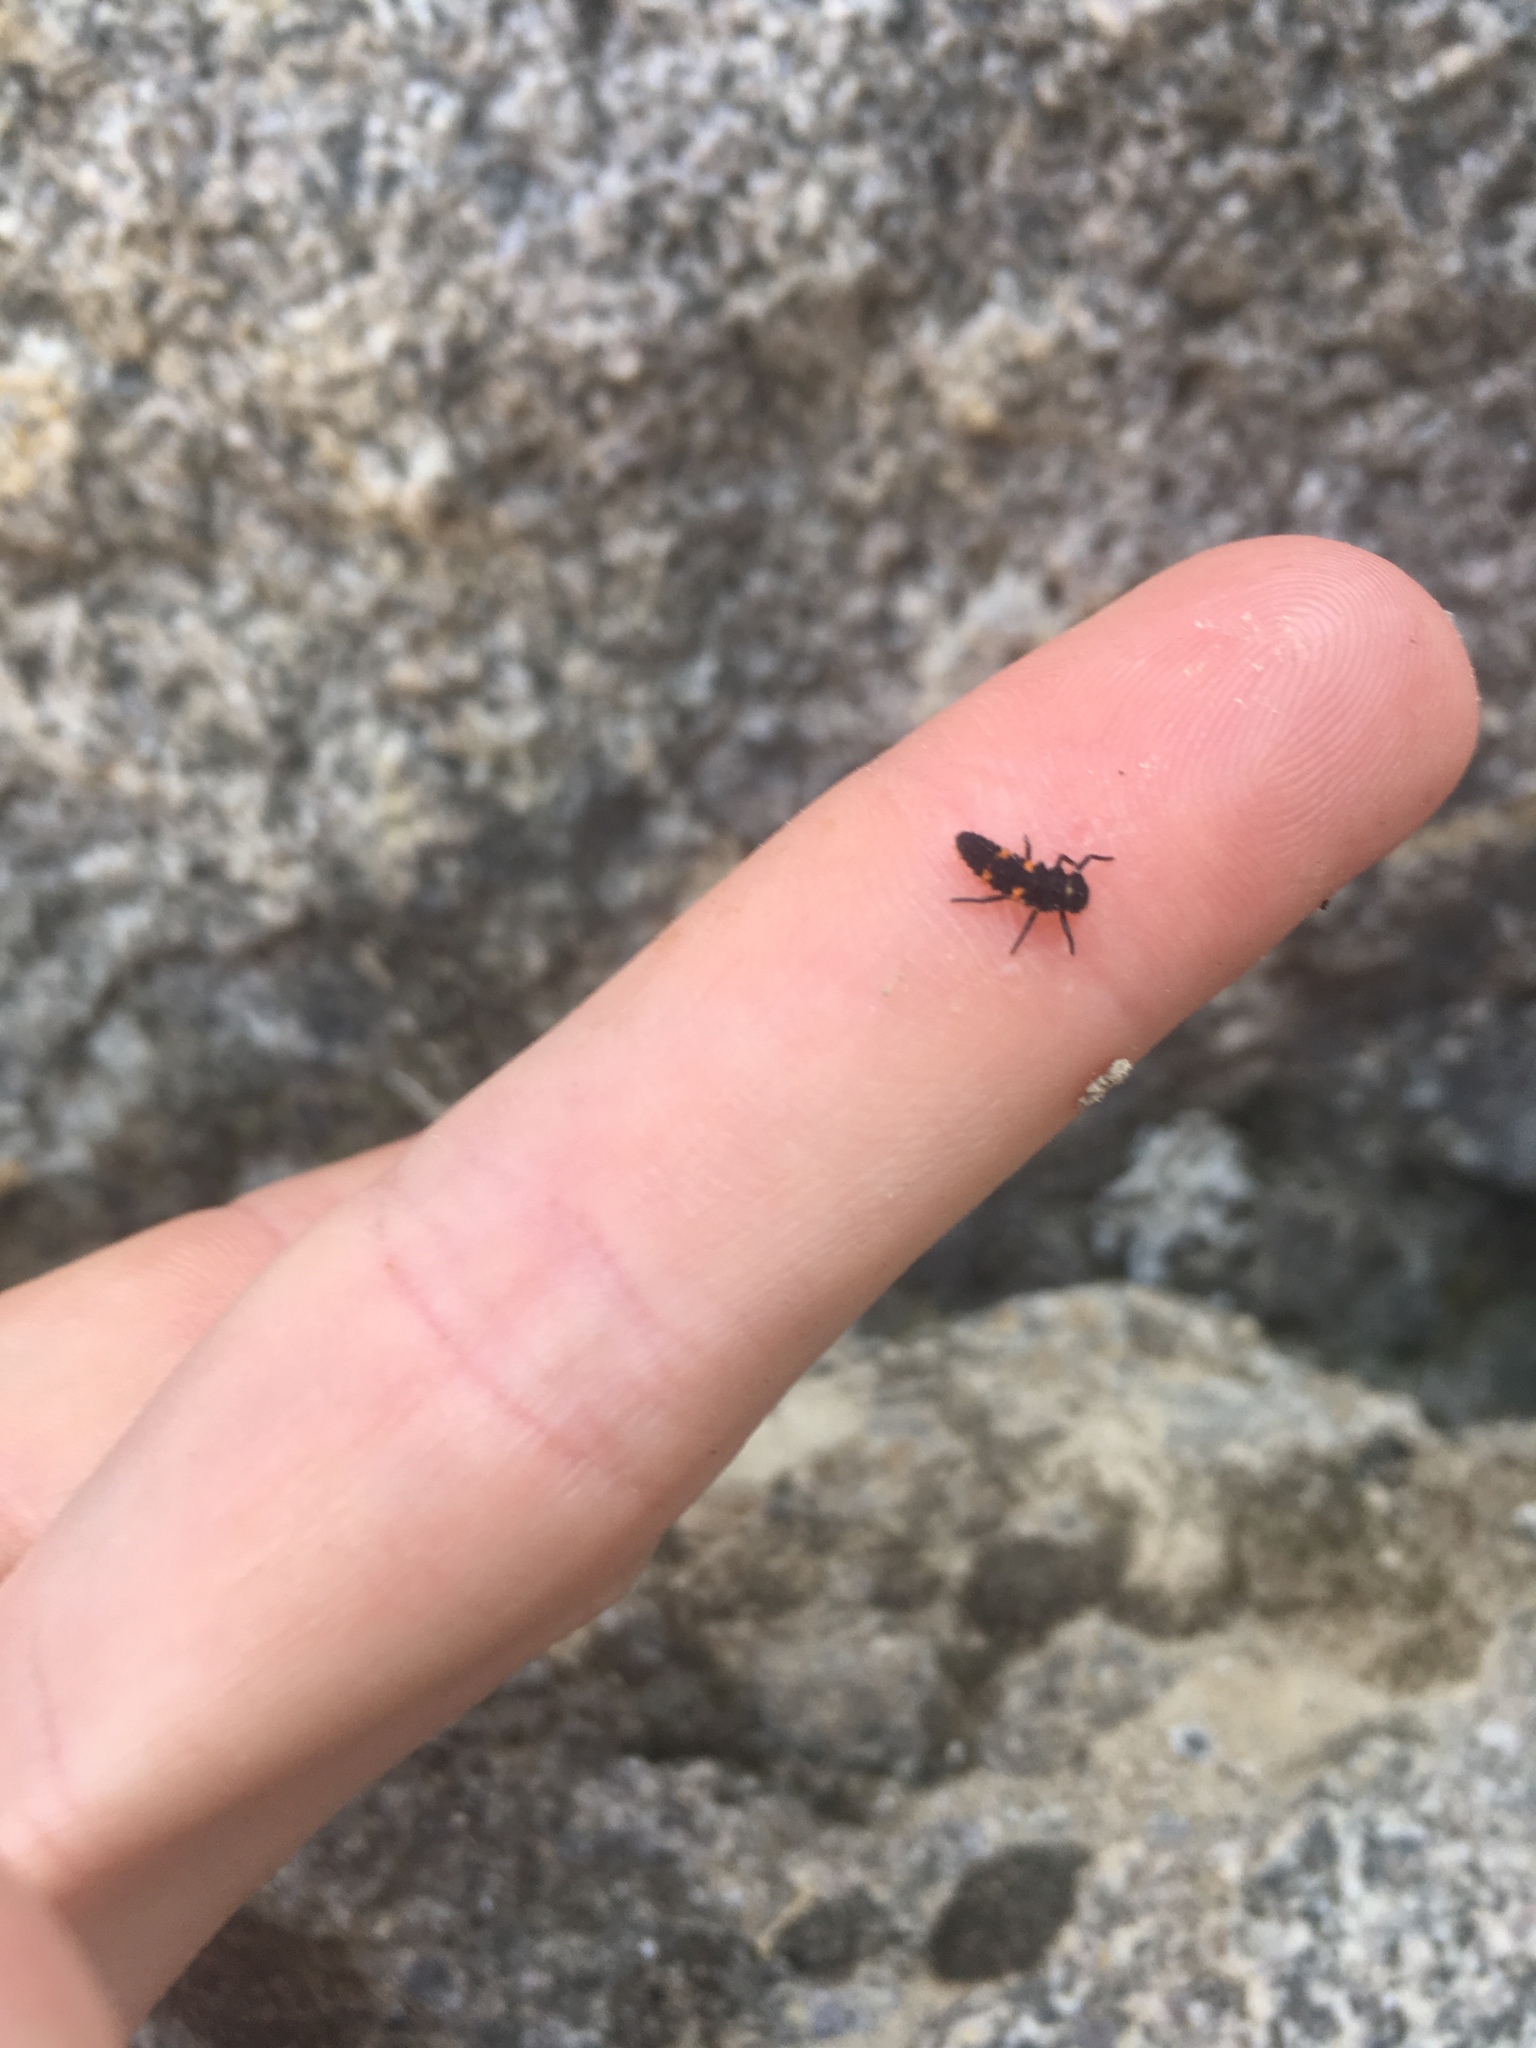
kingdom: Animalia
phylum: Arthropoda
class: Insecta
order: Coleoptera
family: Coccinellidae
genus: Hippodamia
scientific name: Hippodamia convergens
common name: Convergent lady beetle
